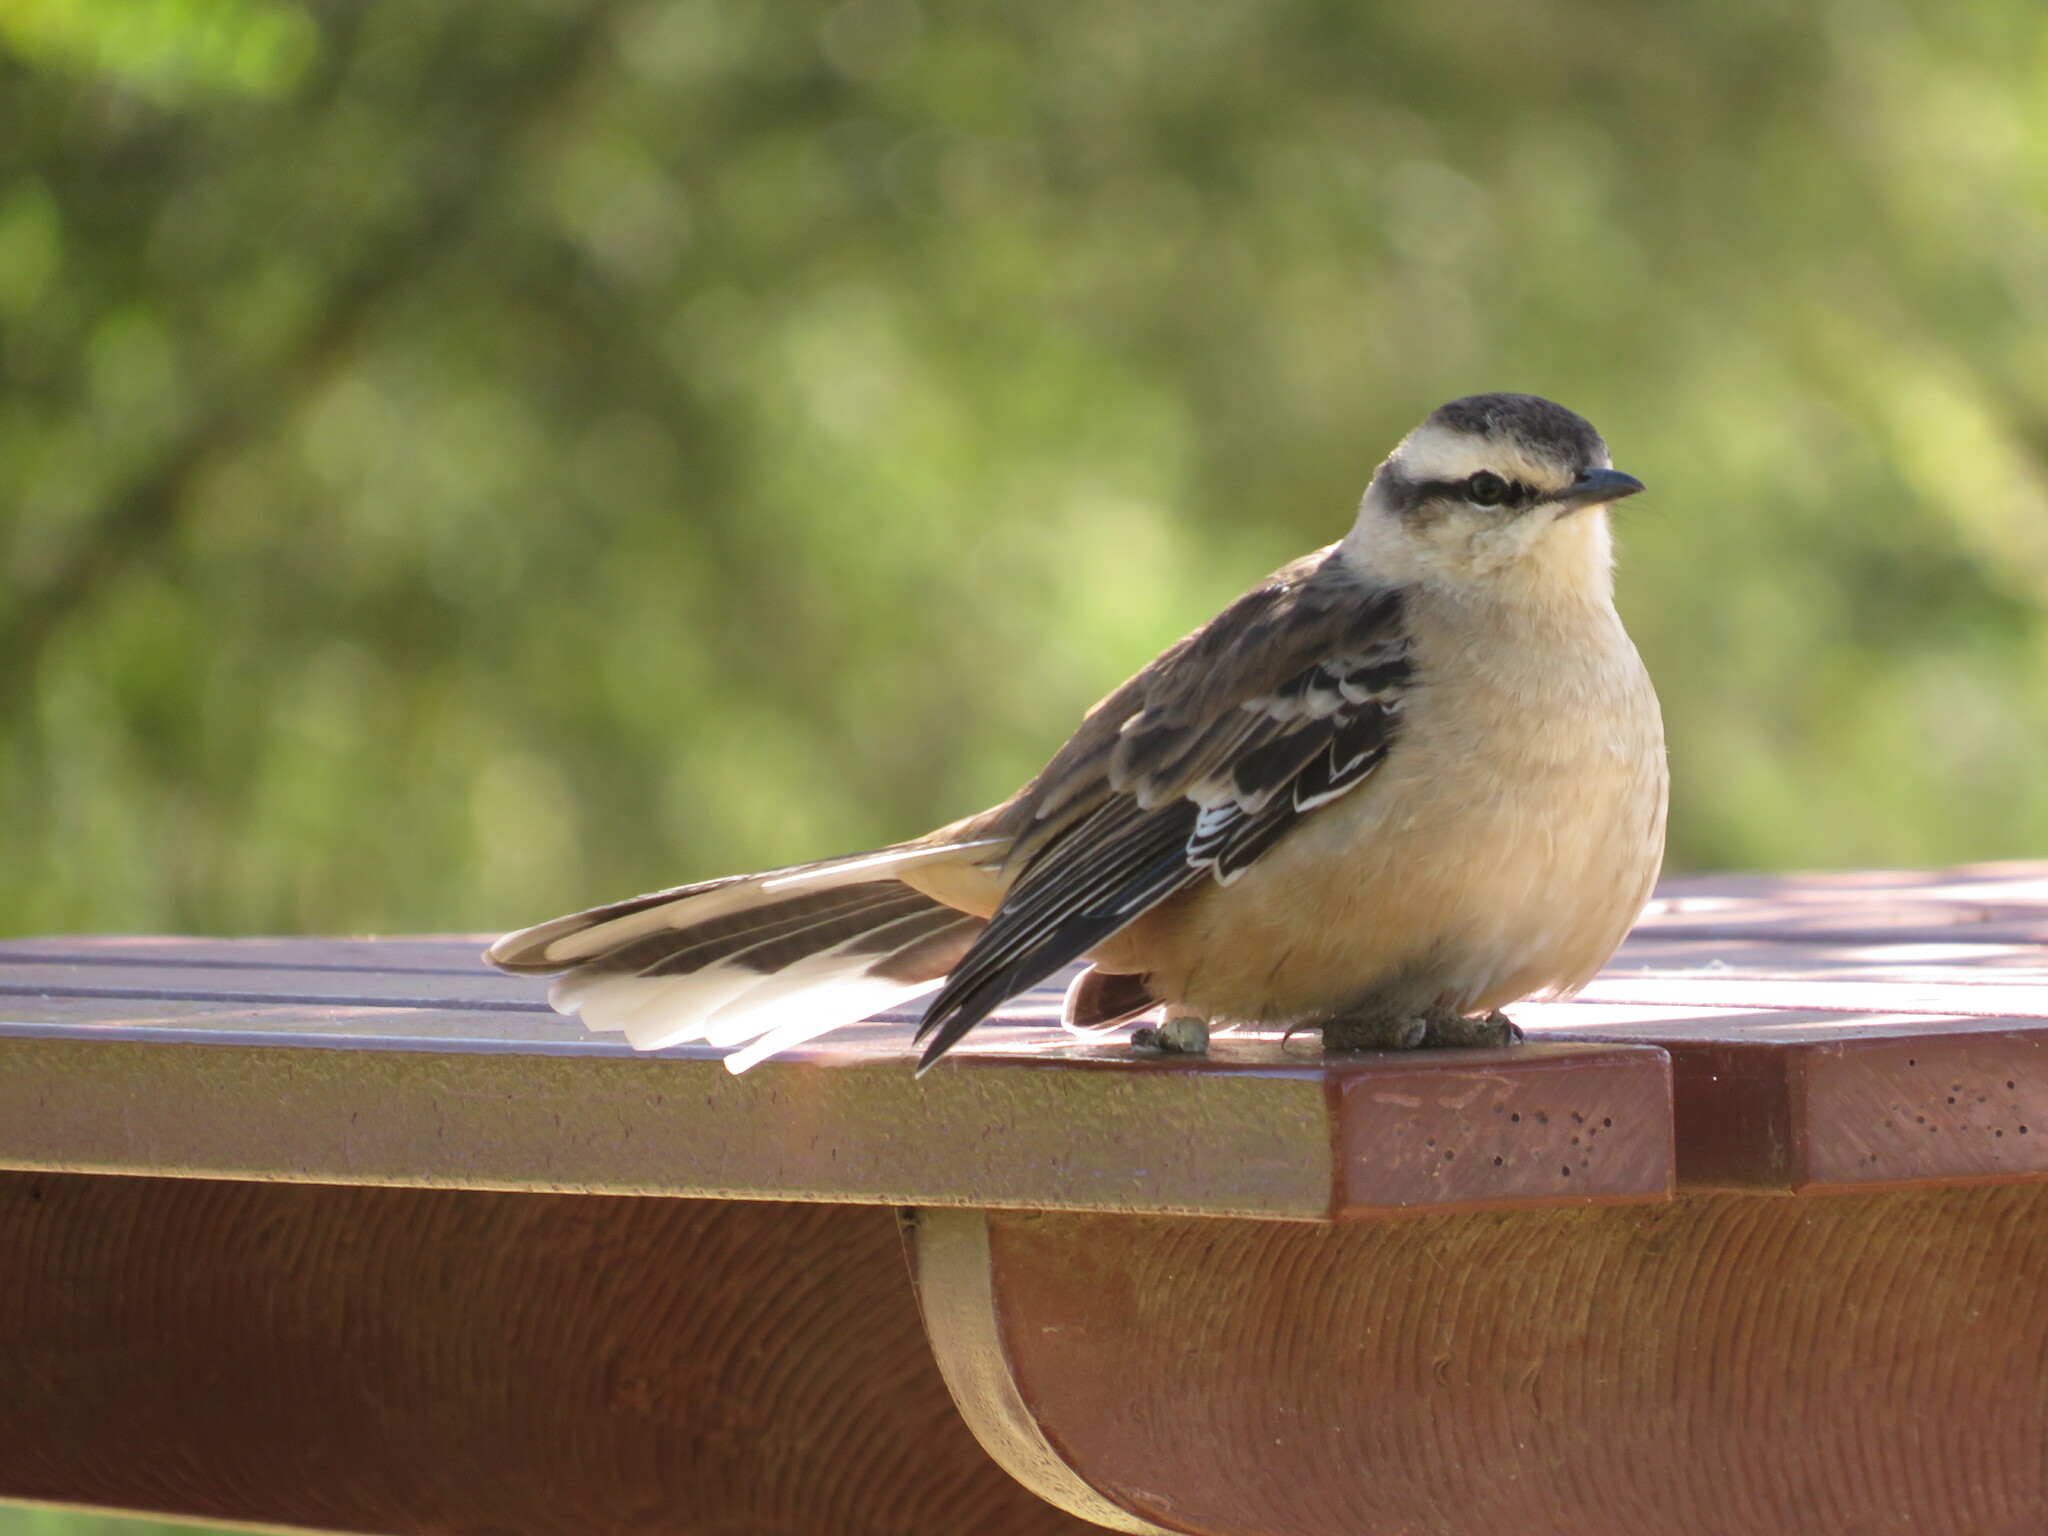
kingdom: Animalia
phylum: Chordata
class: Aves
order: Passeriformes
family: Mimidae
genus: Mimus
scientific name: Mimus saturninus
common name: Chalk-browed mockingbird
